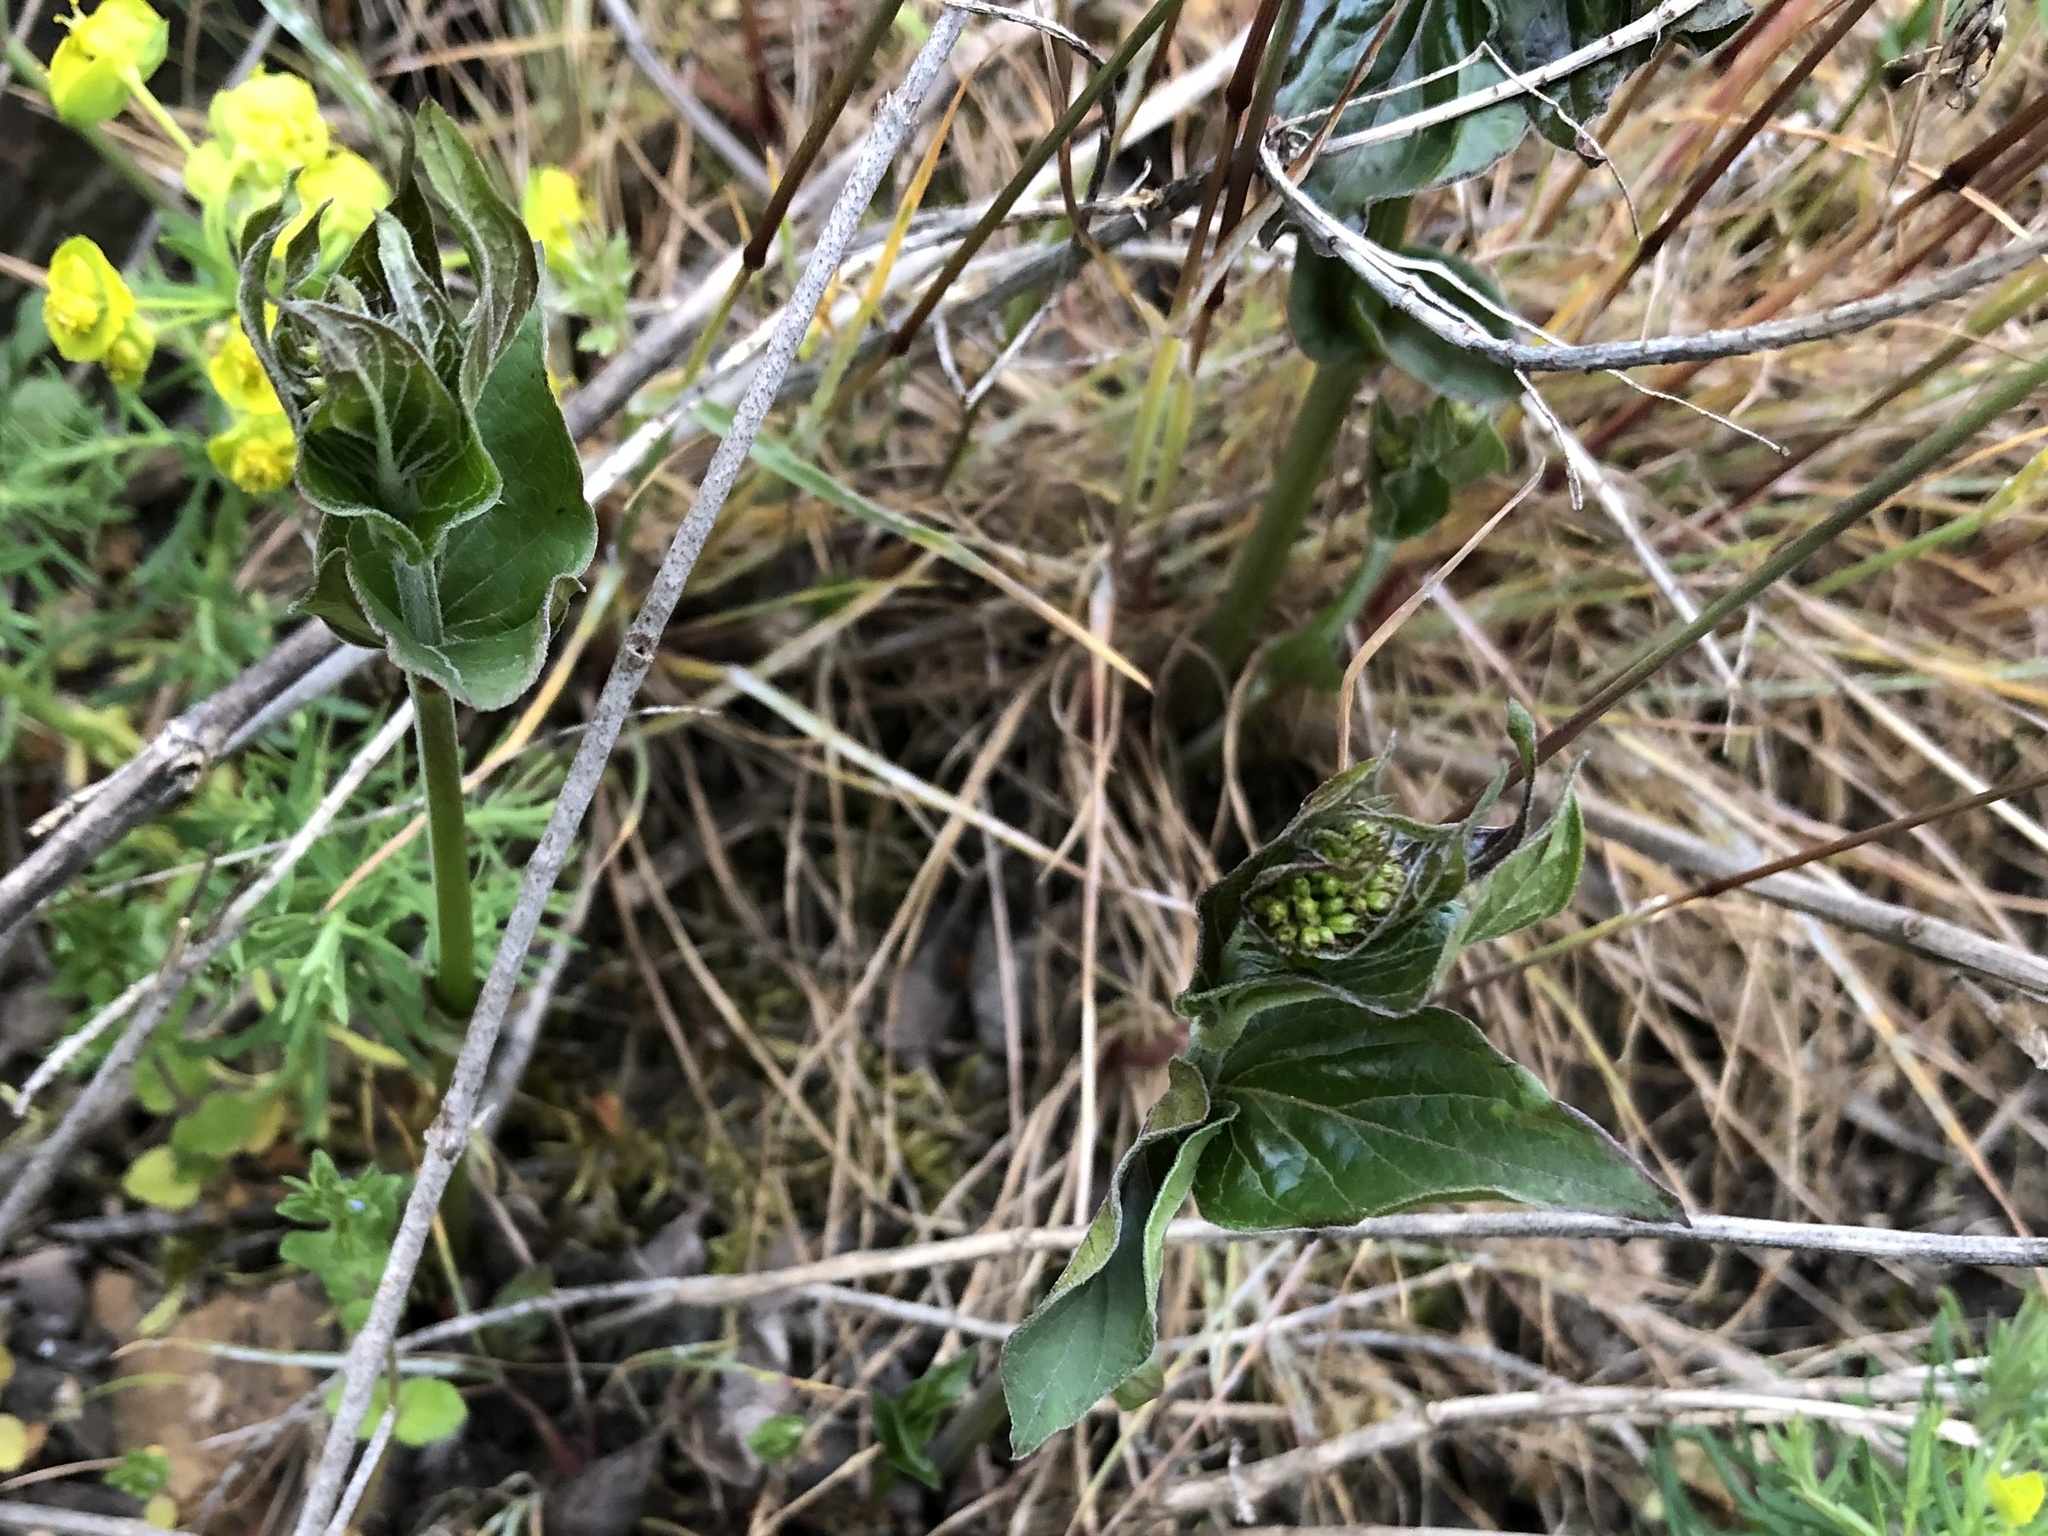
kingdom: Plantae
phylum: Tracheophyta
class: Magnoliopsida
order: Gentianales
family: Apocynaceae
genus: Vincetoxicum
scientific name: Vincetoxicum hirundinaria
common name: White swallowwort
